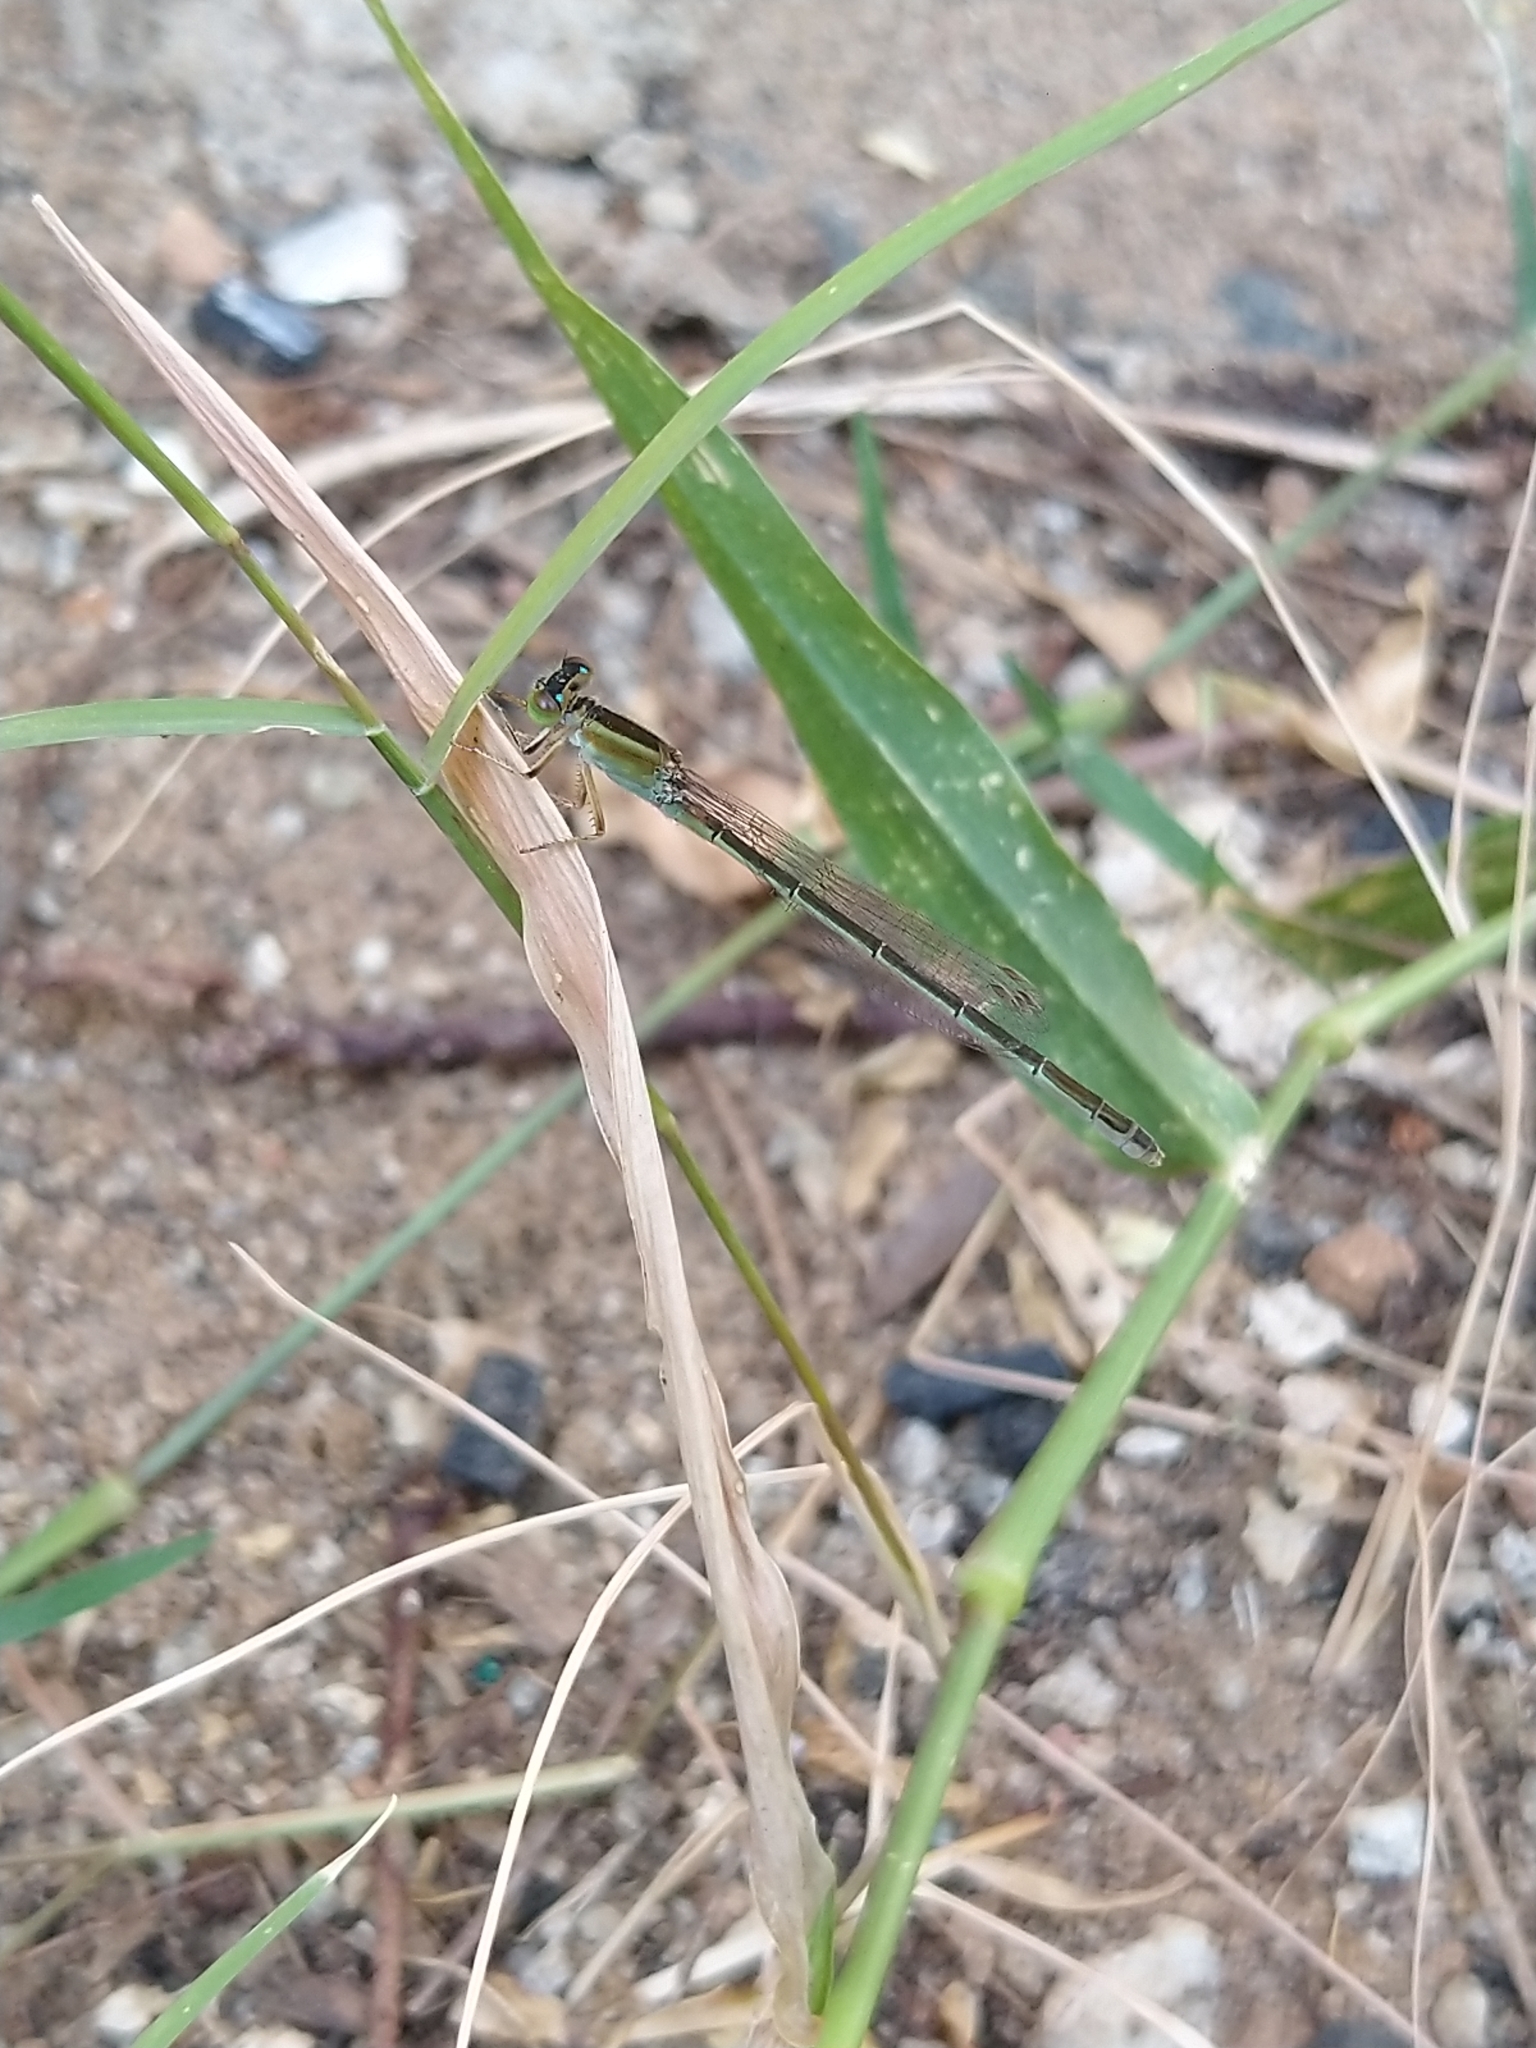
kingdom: Animalia
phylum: Arthropoda
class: Insecta
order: Odonata
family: Coenagrionidae
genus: Ischnura
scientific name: Ischnura senegalensis
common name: Tropical bluetail
